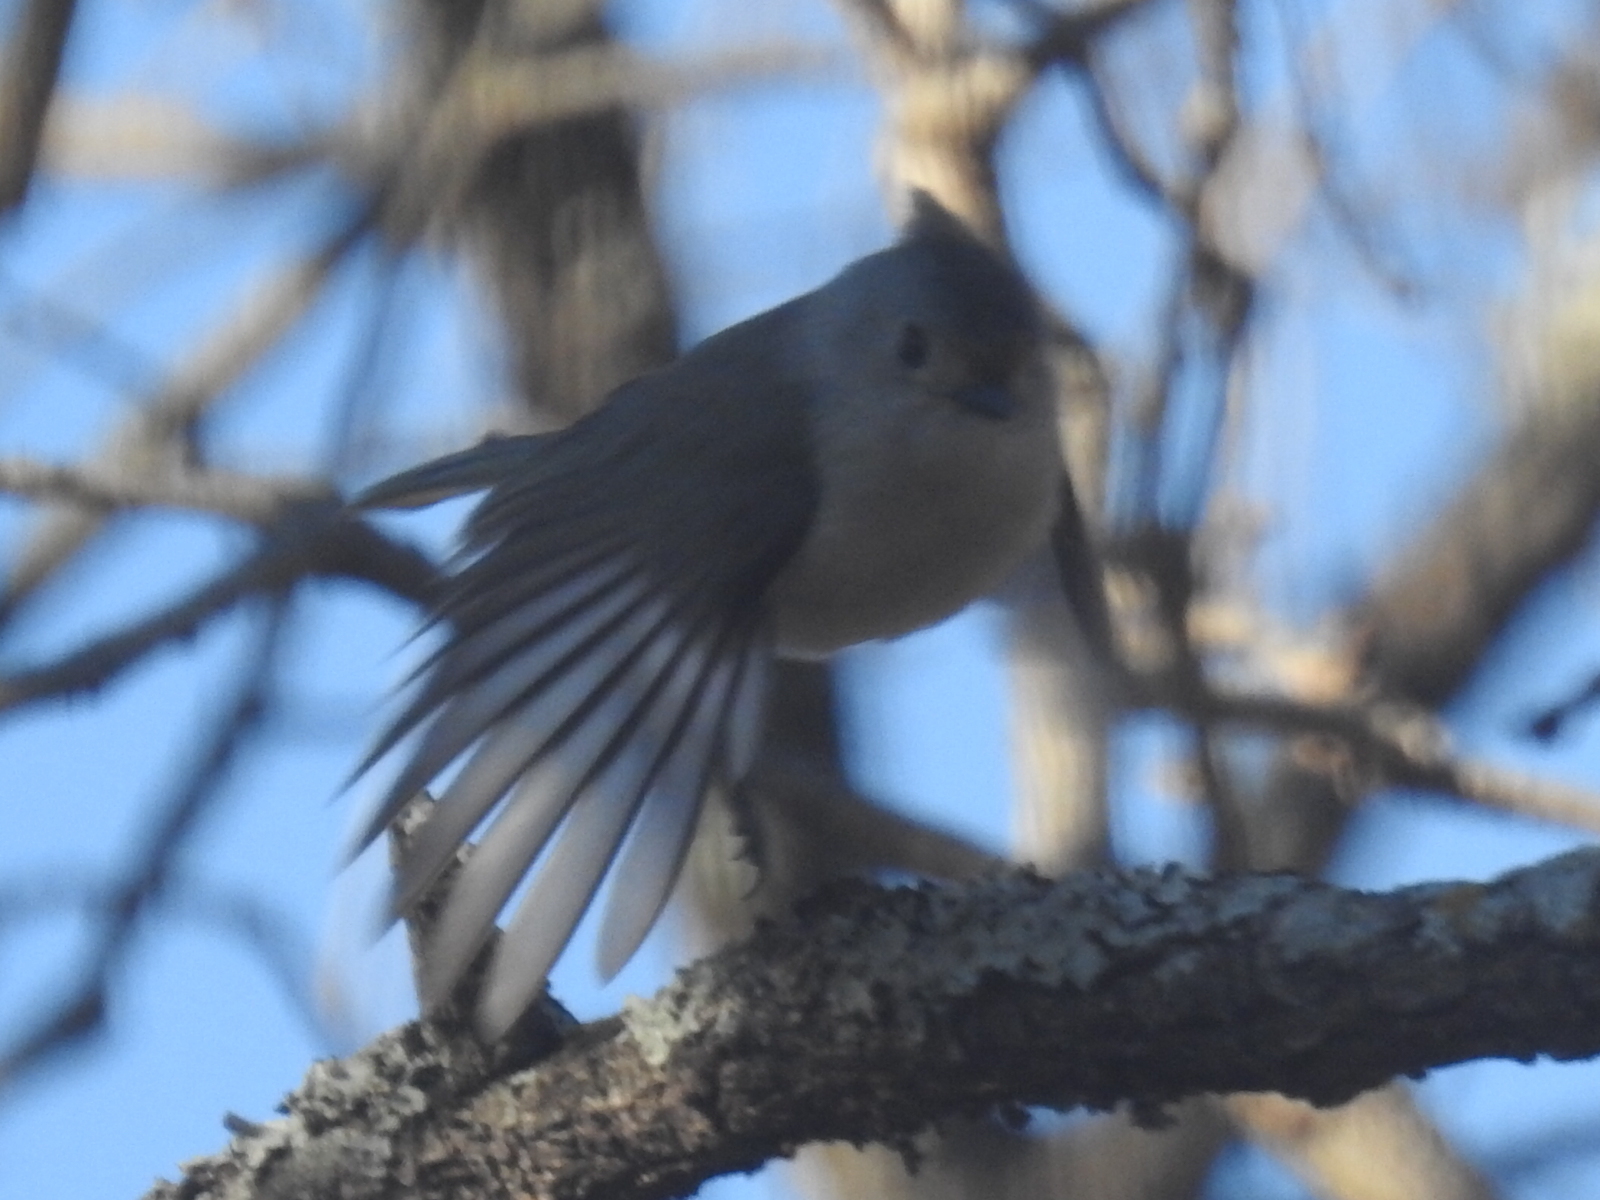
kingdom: Animalia
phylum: Chordata
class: Aves
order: Passeriformes
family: Paridae
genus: Baeolophus
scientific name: Baeolophus
